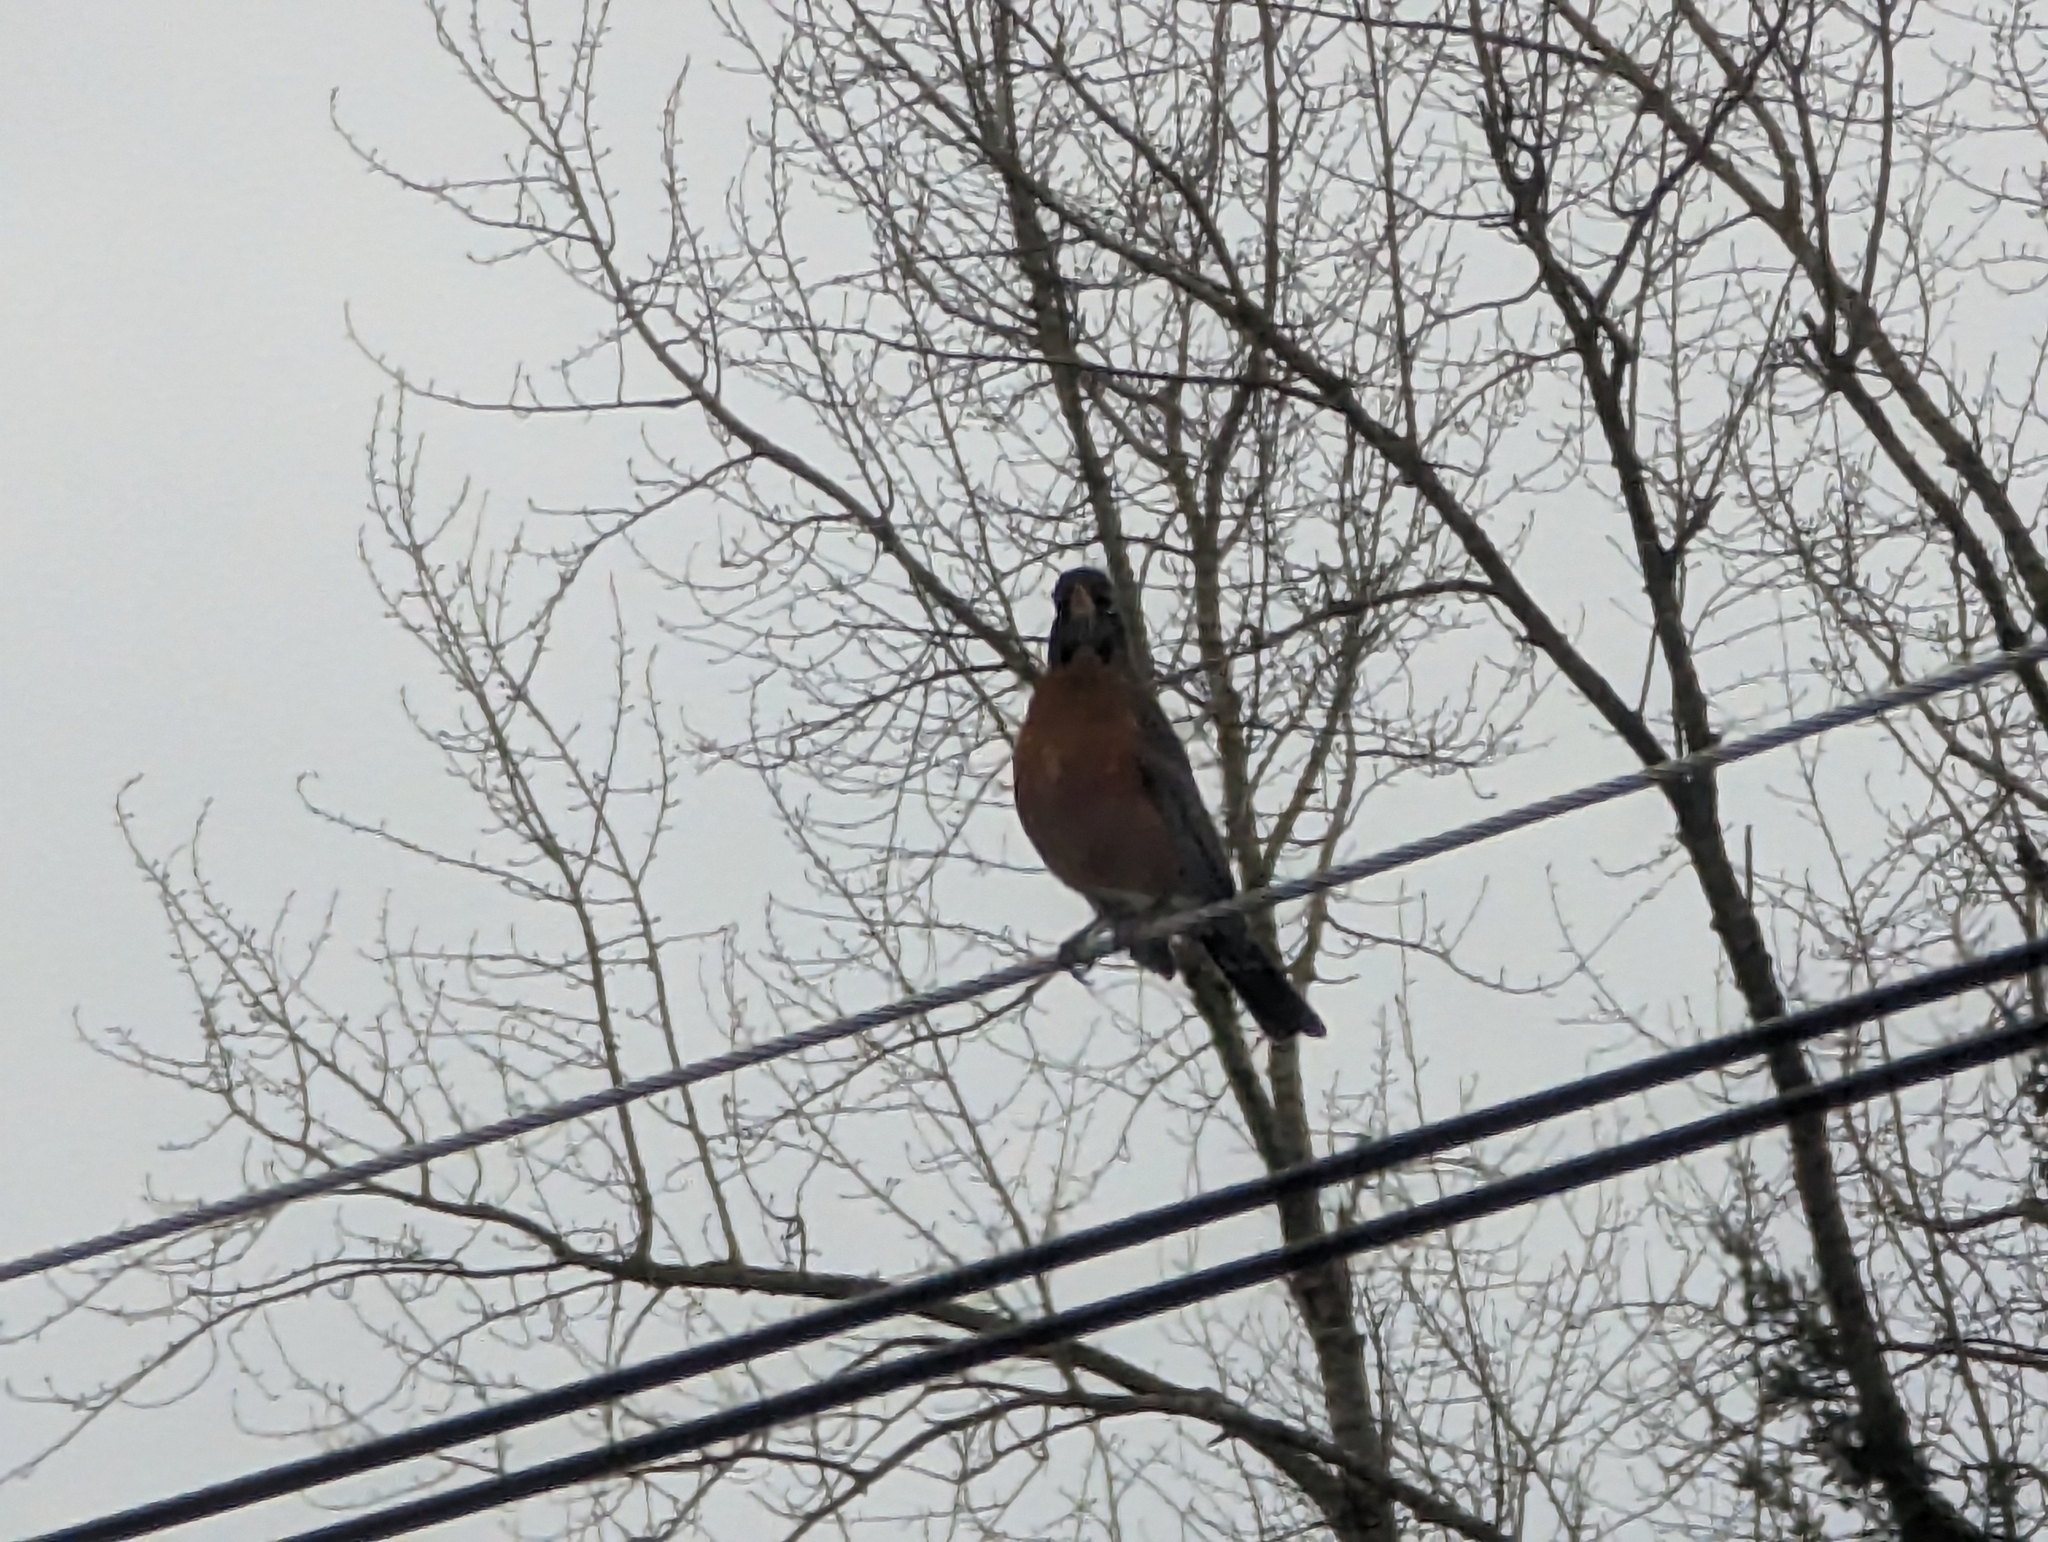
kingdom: Animalia
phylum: Chordata
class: Aves
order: Passeriformes
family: Turdidae
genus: Turdus
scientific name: Turdus migratorius
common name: American robin
